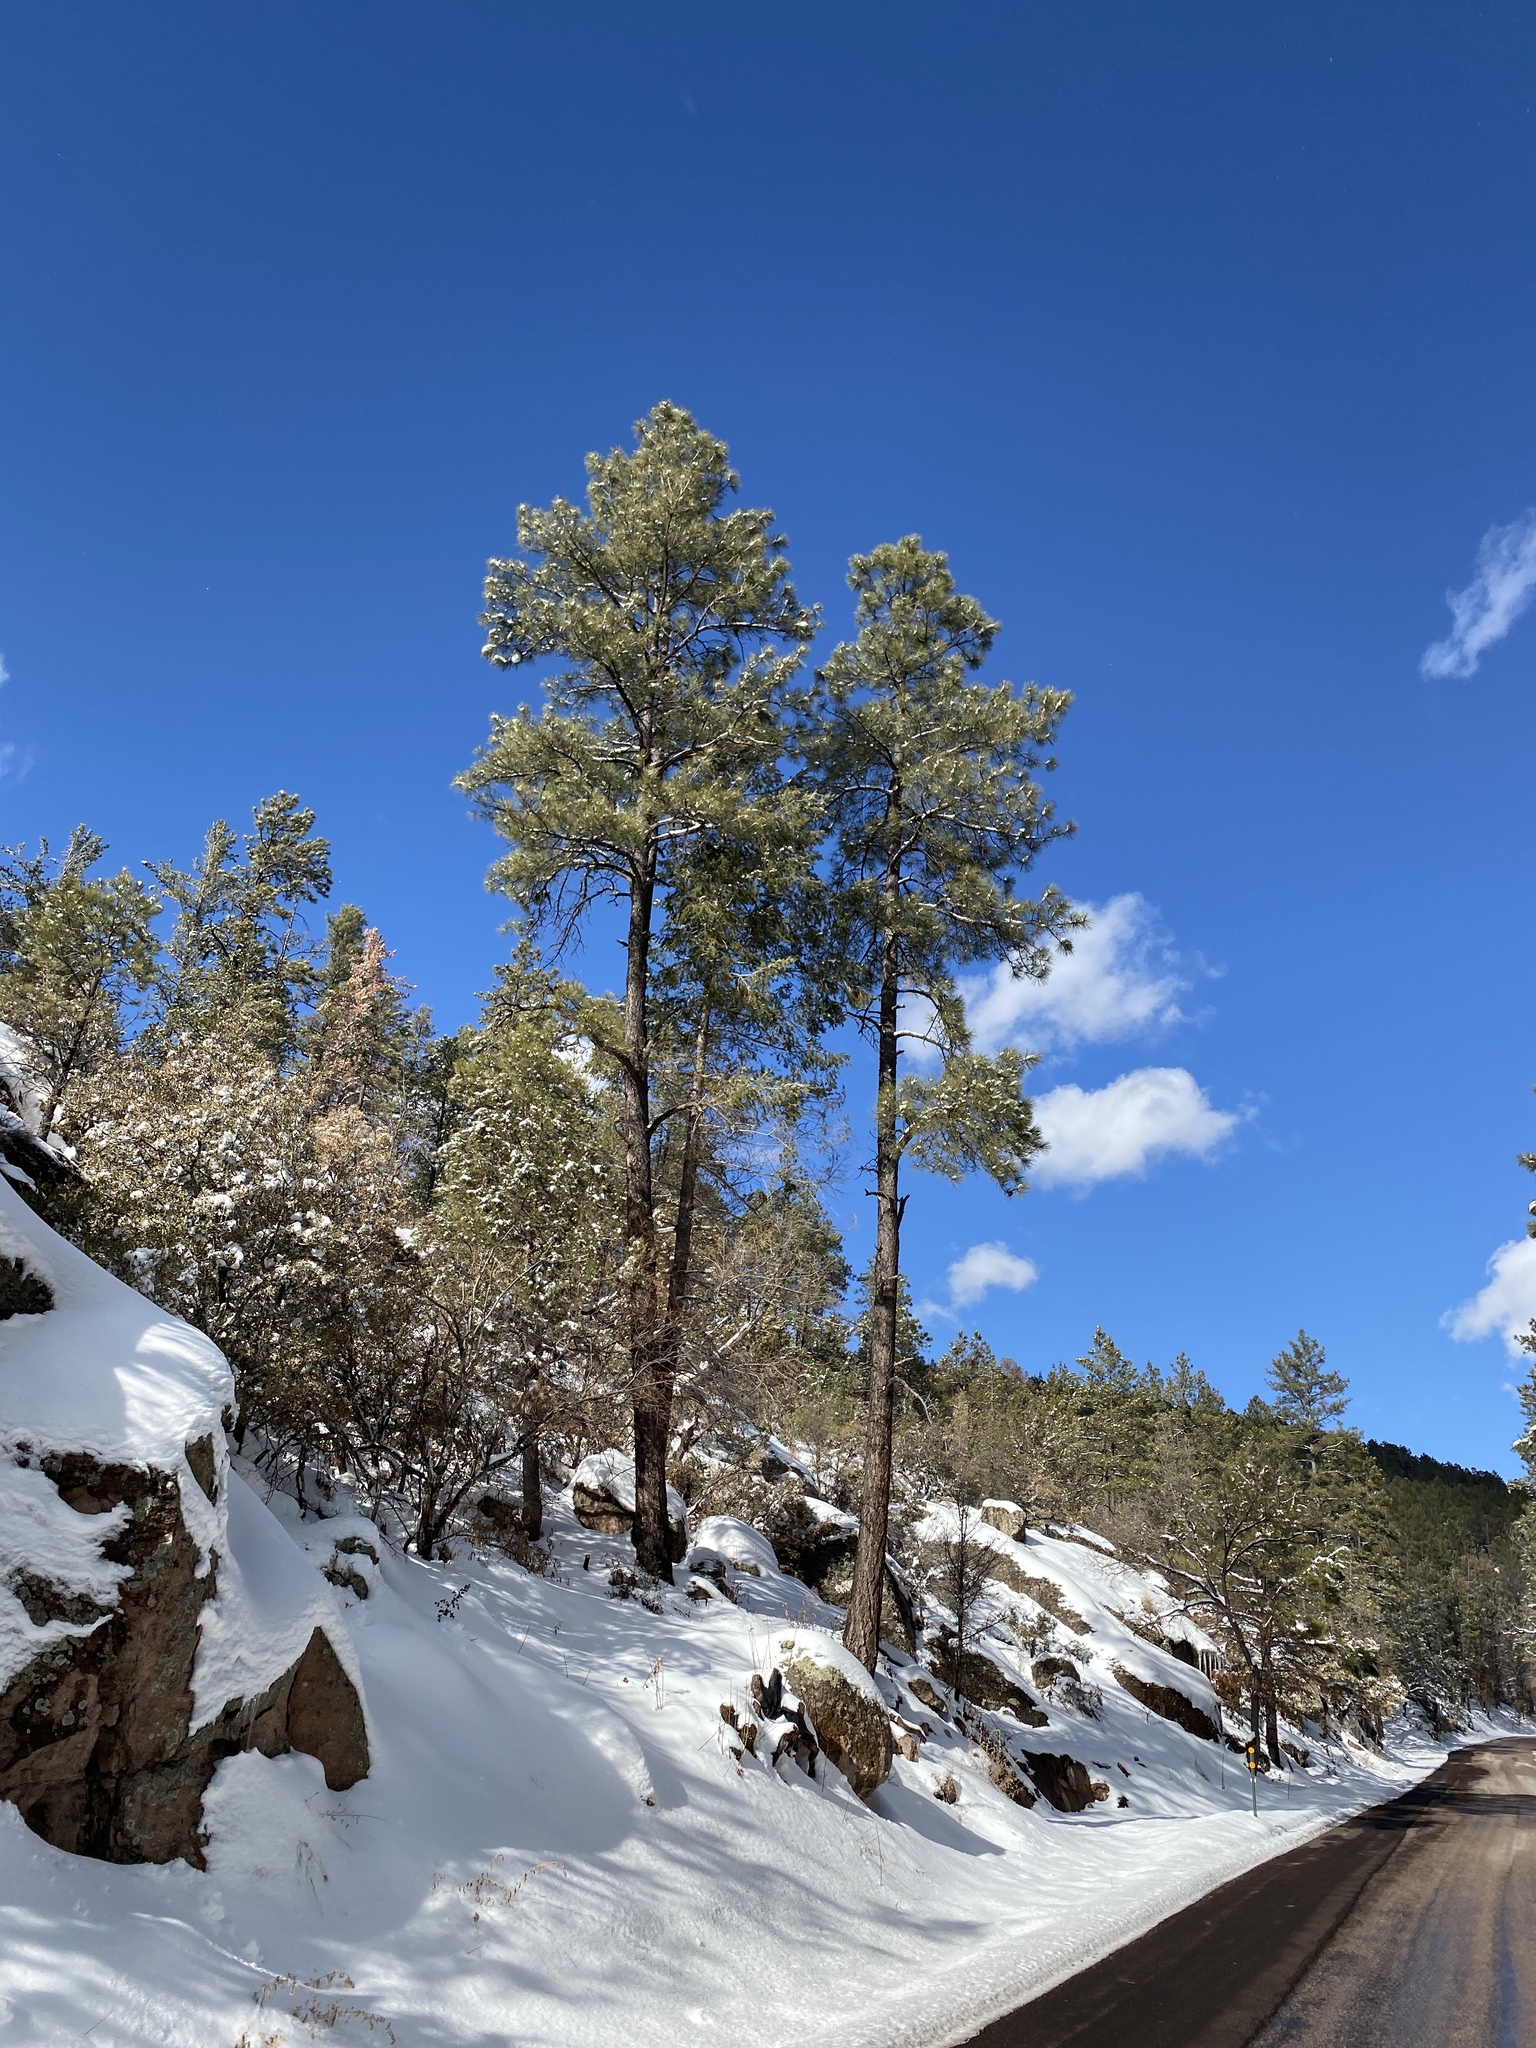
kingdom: Plantae
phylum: Tracheophyta
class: Pinopsida
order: Pinales
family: Pinaceae
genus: Pinus
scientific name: Pinus ponderosa
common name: Western yellow-pine
